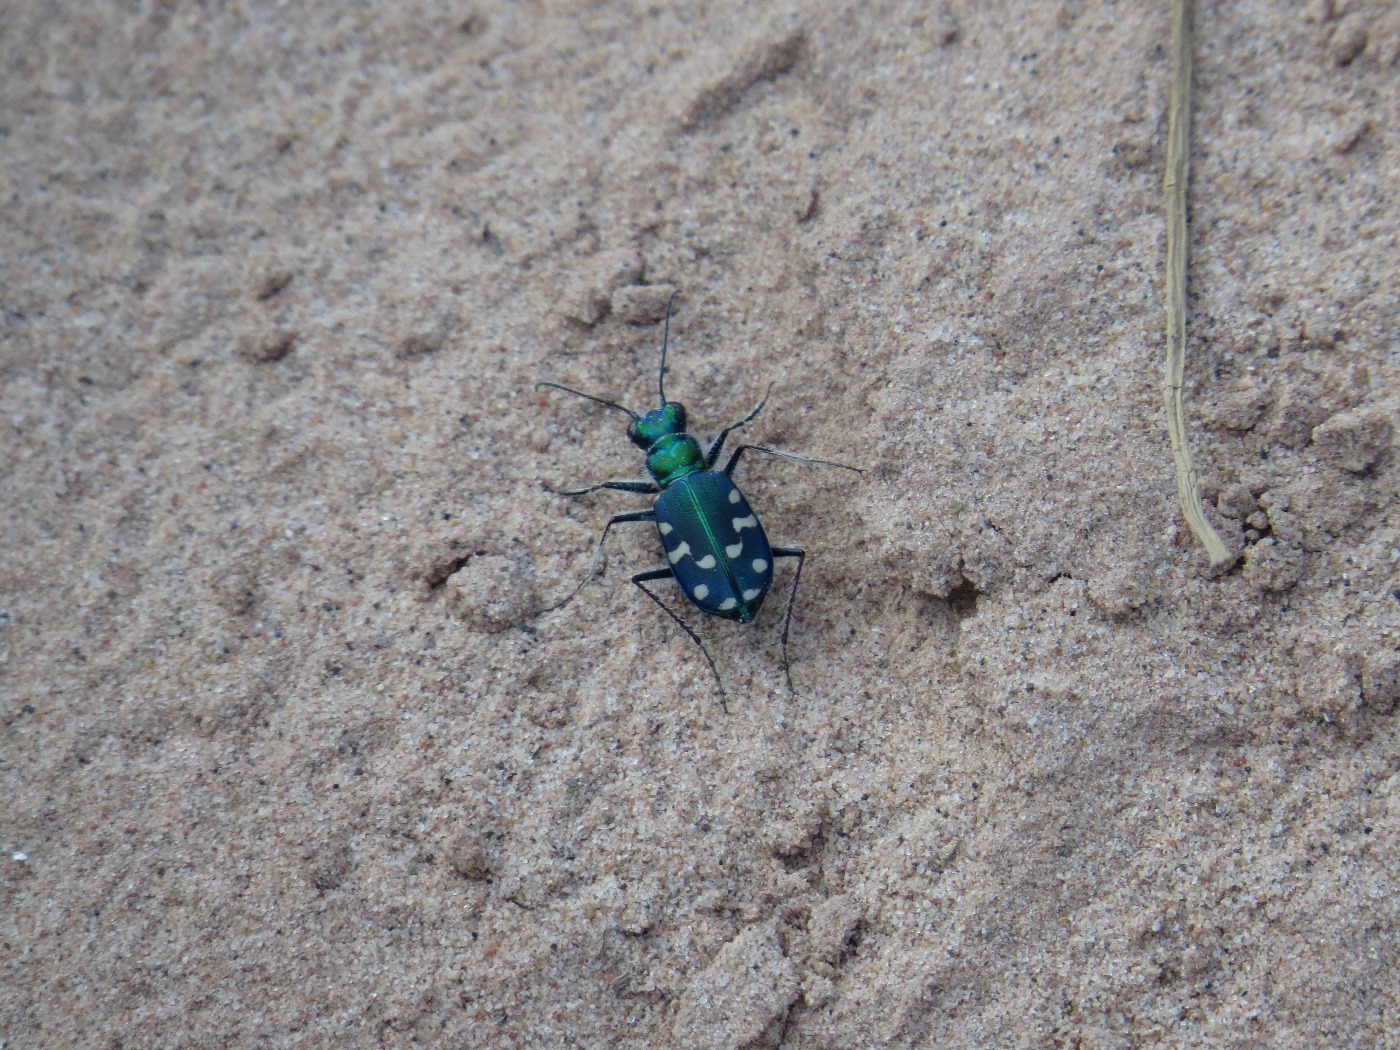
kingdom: Animalia
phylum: Arthropoda
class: Insecta
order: Coleoptera
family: Carabidae
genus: Cicindela
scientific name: Cicindela oregona
